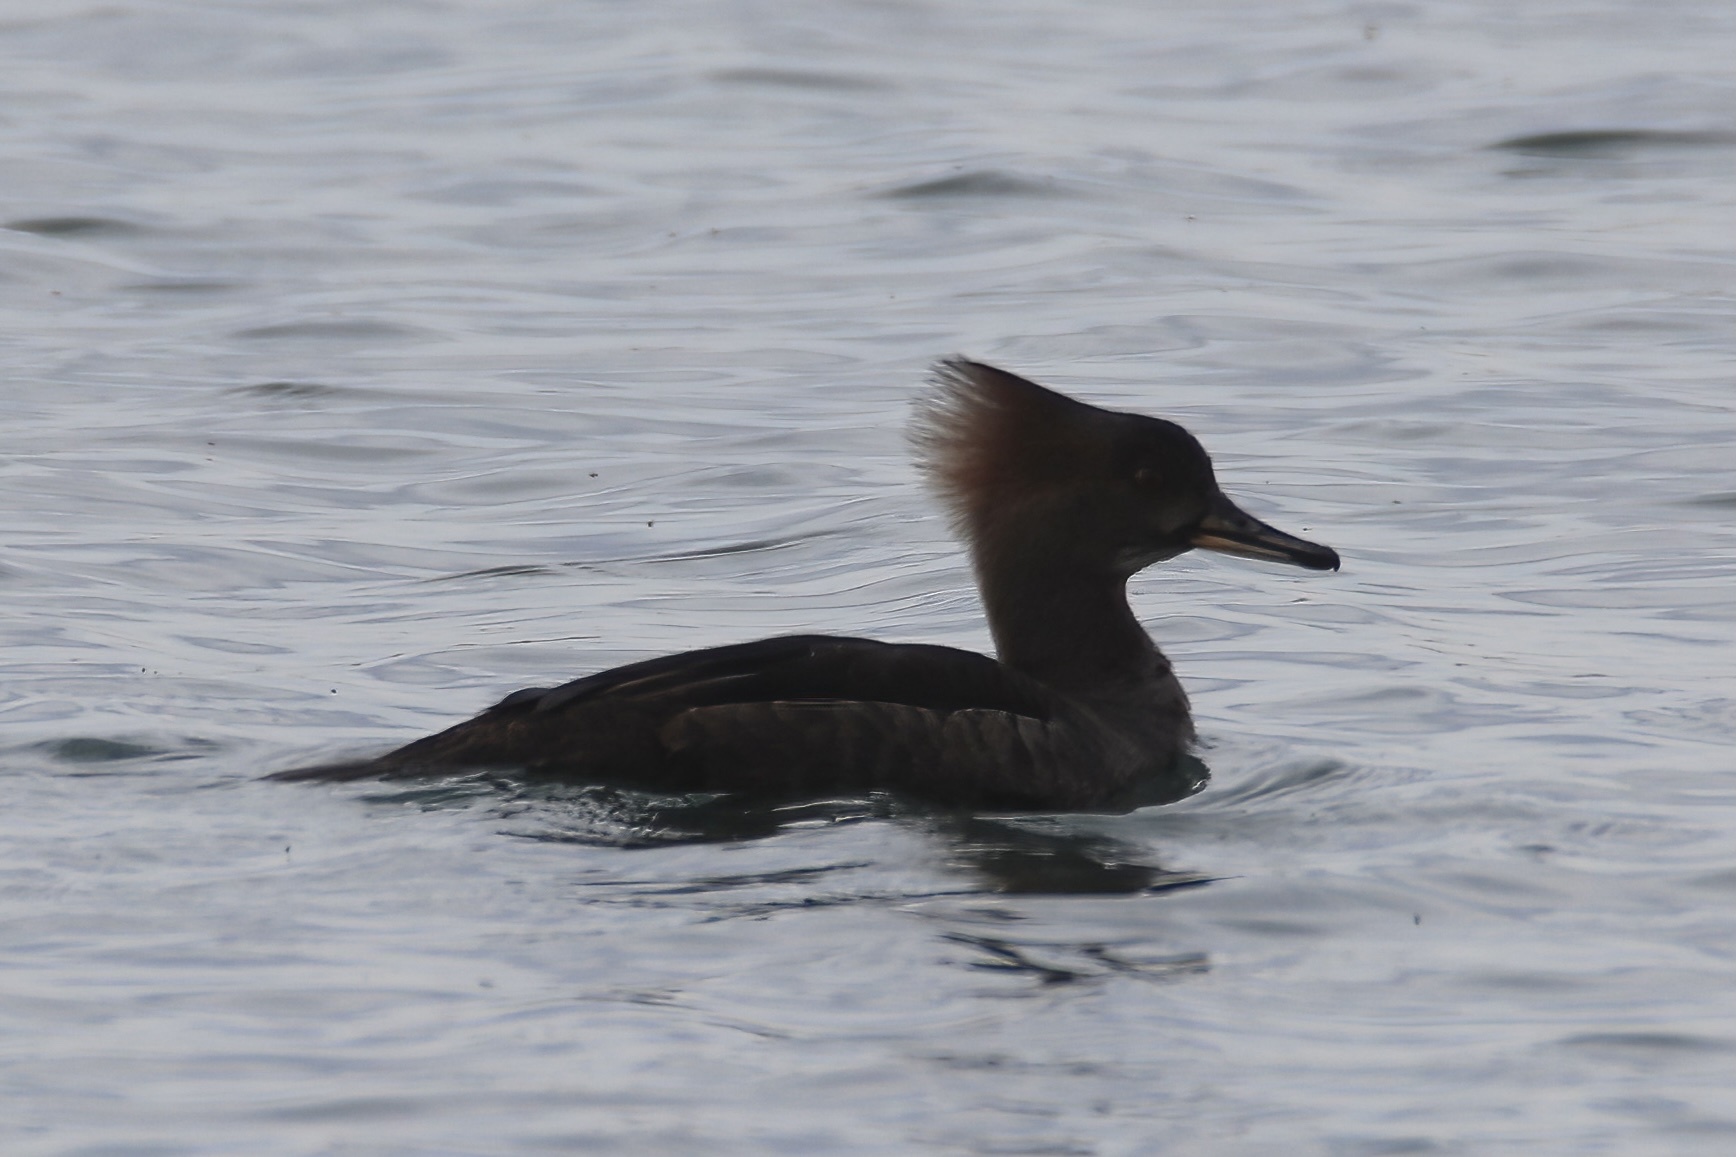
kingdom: Animalia
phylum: Chordata
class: Aves
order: Anseriformes
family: Anatidae
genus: Lophodytes
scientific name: Lophodytes cucullatus
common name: Hooded merganser
